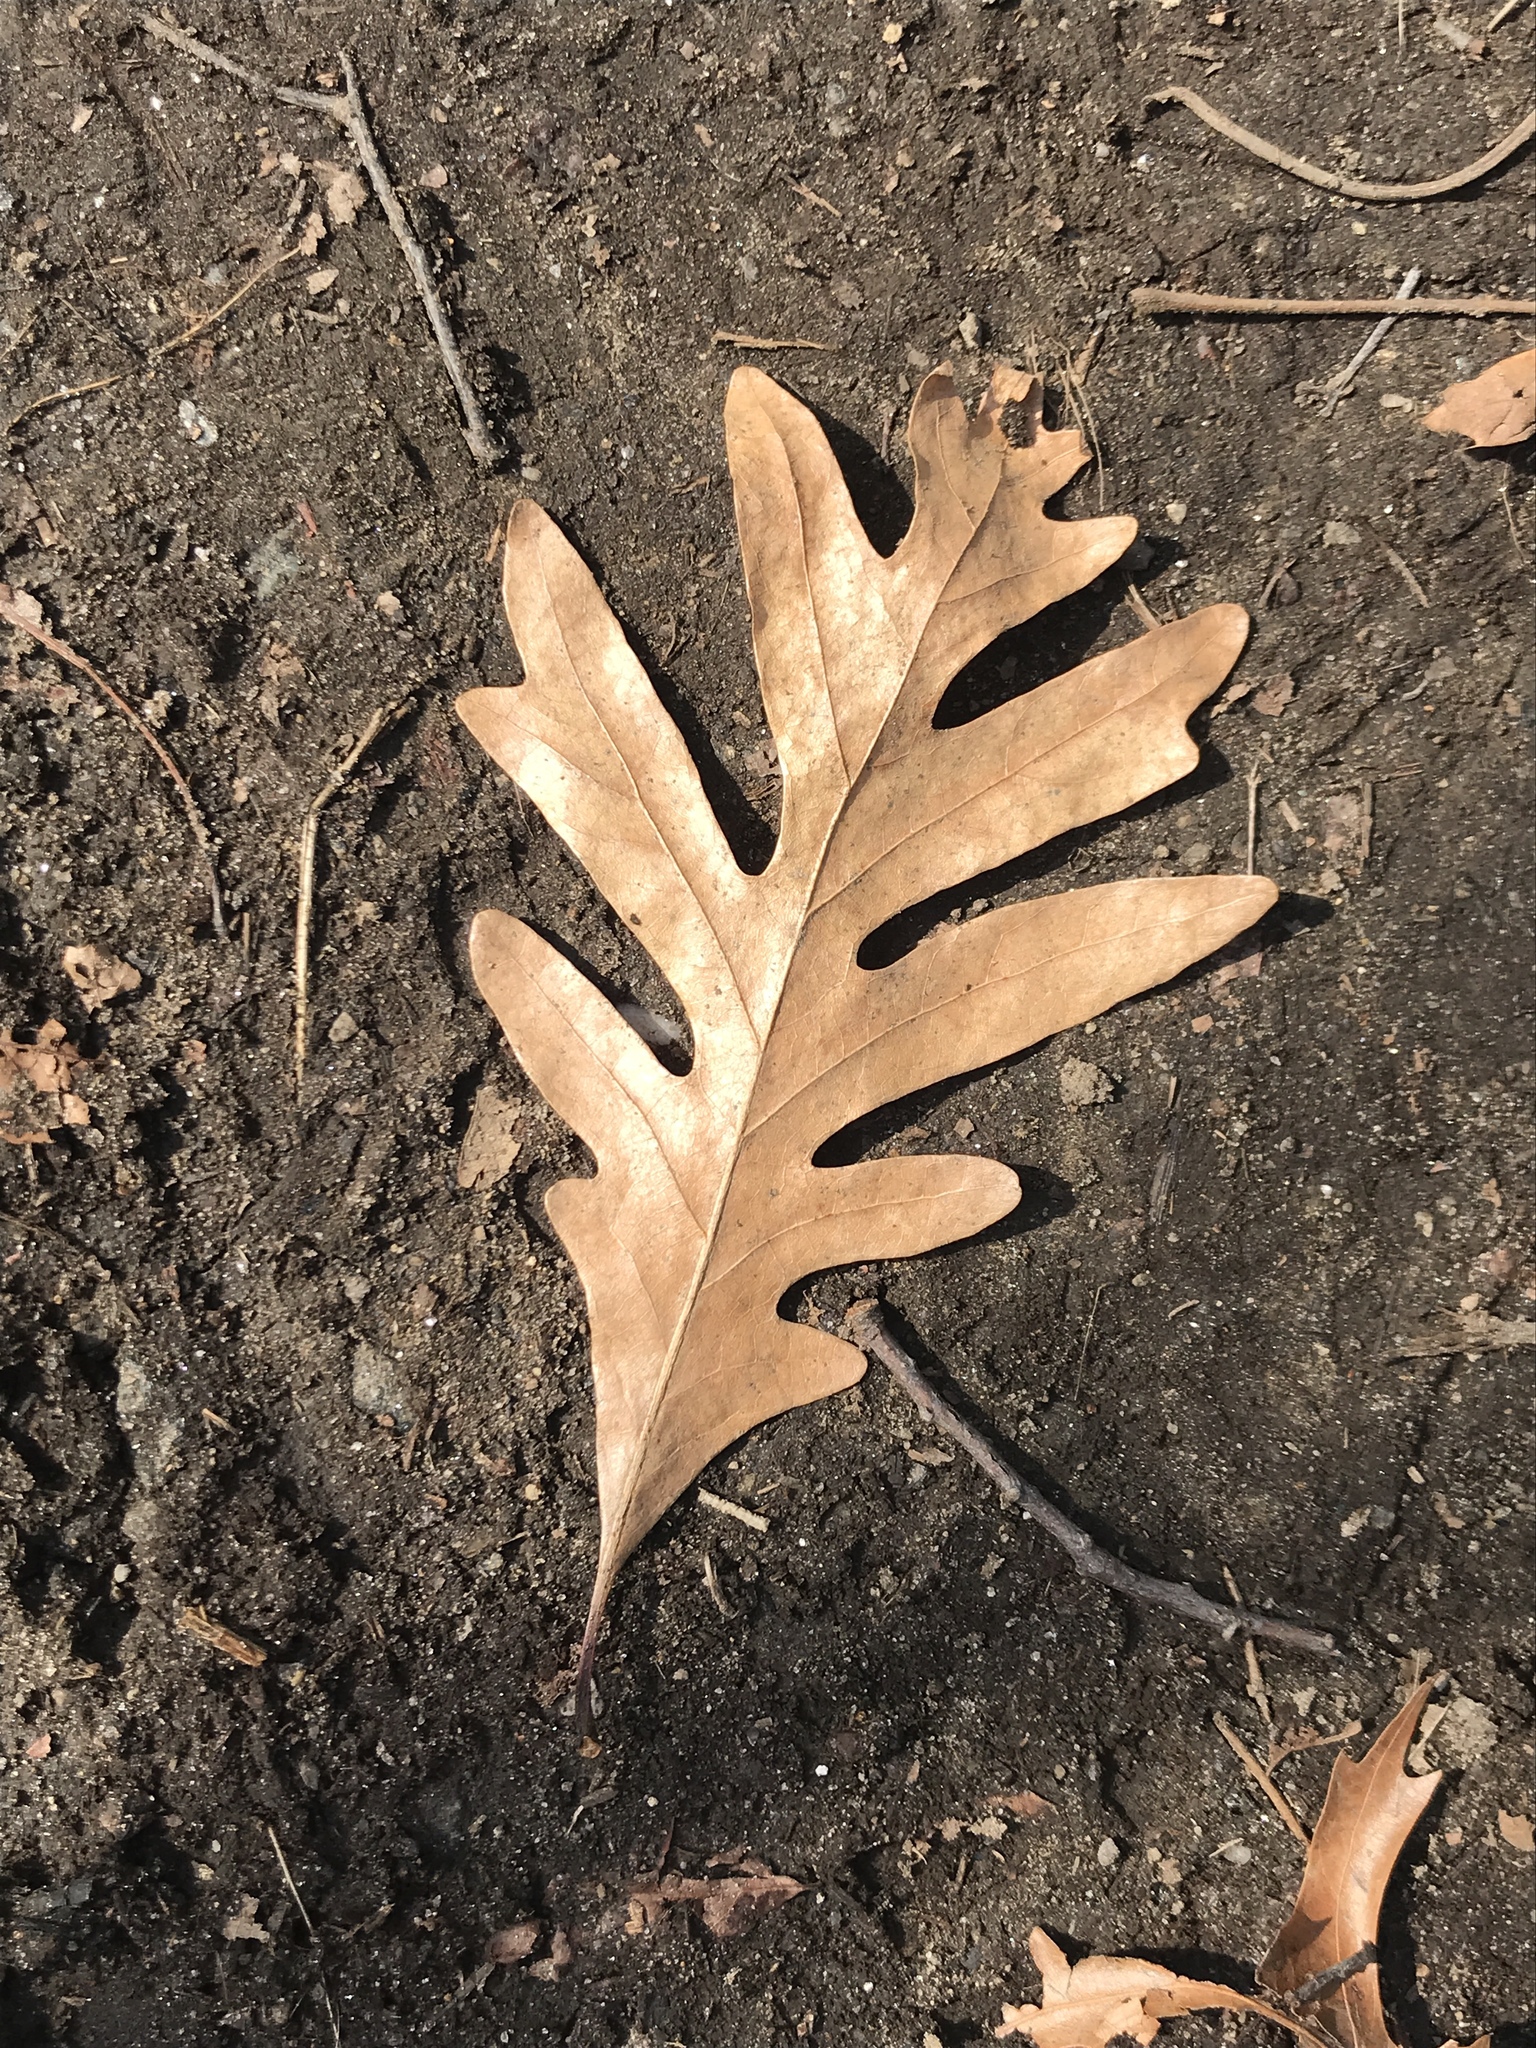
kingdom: Plantae
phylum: Tracheophyta
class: Magnoliopsida
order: Fagales
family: Fagaceae
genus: Quercus
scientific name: Quercus alba
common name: White oak
